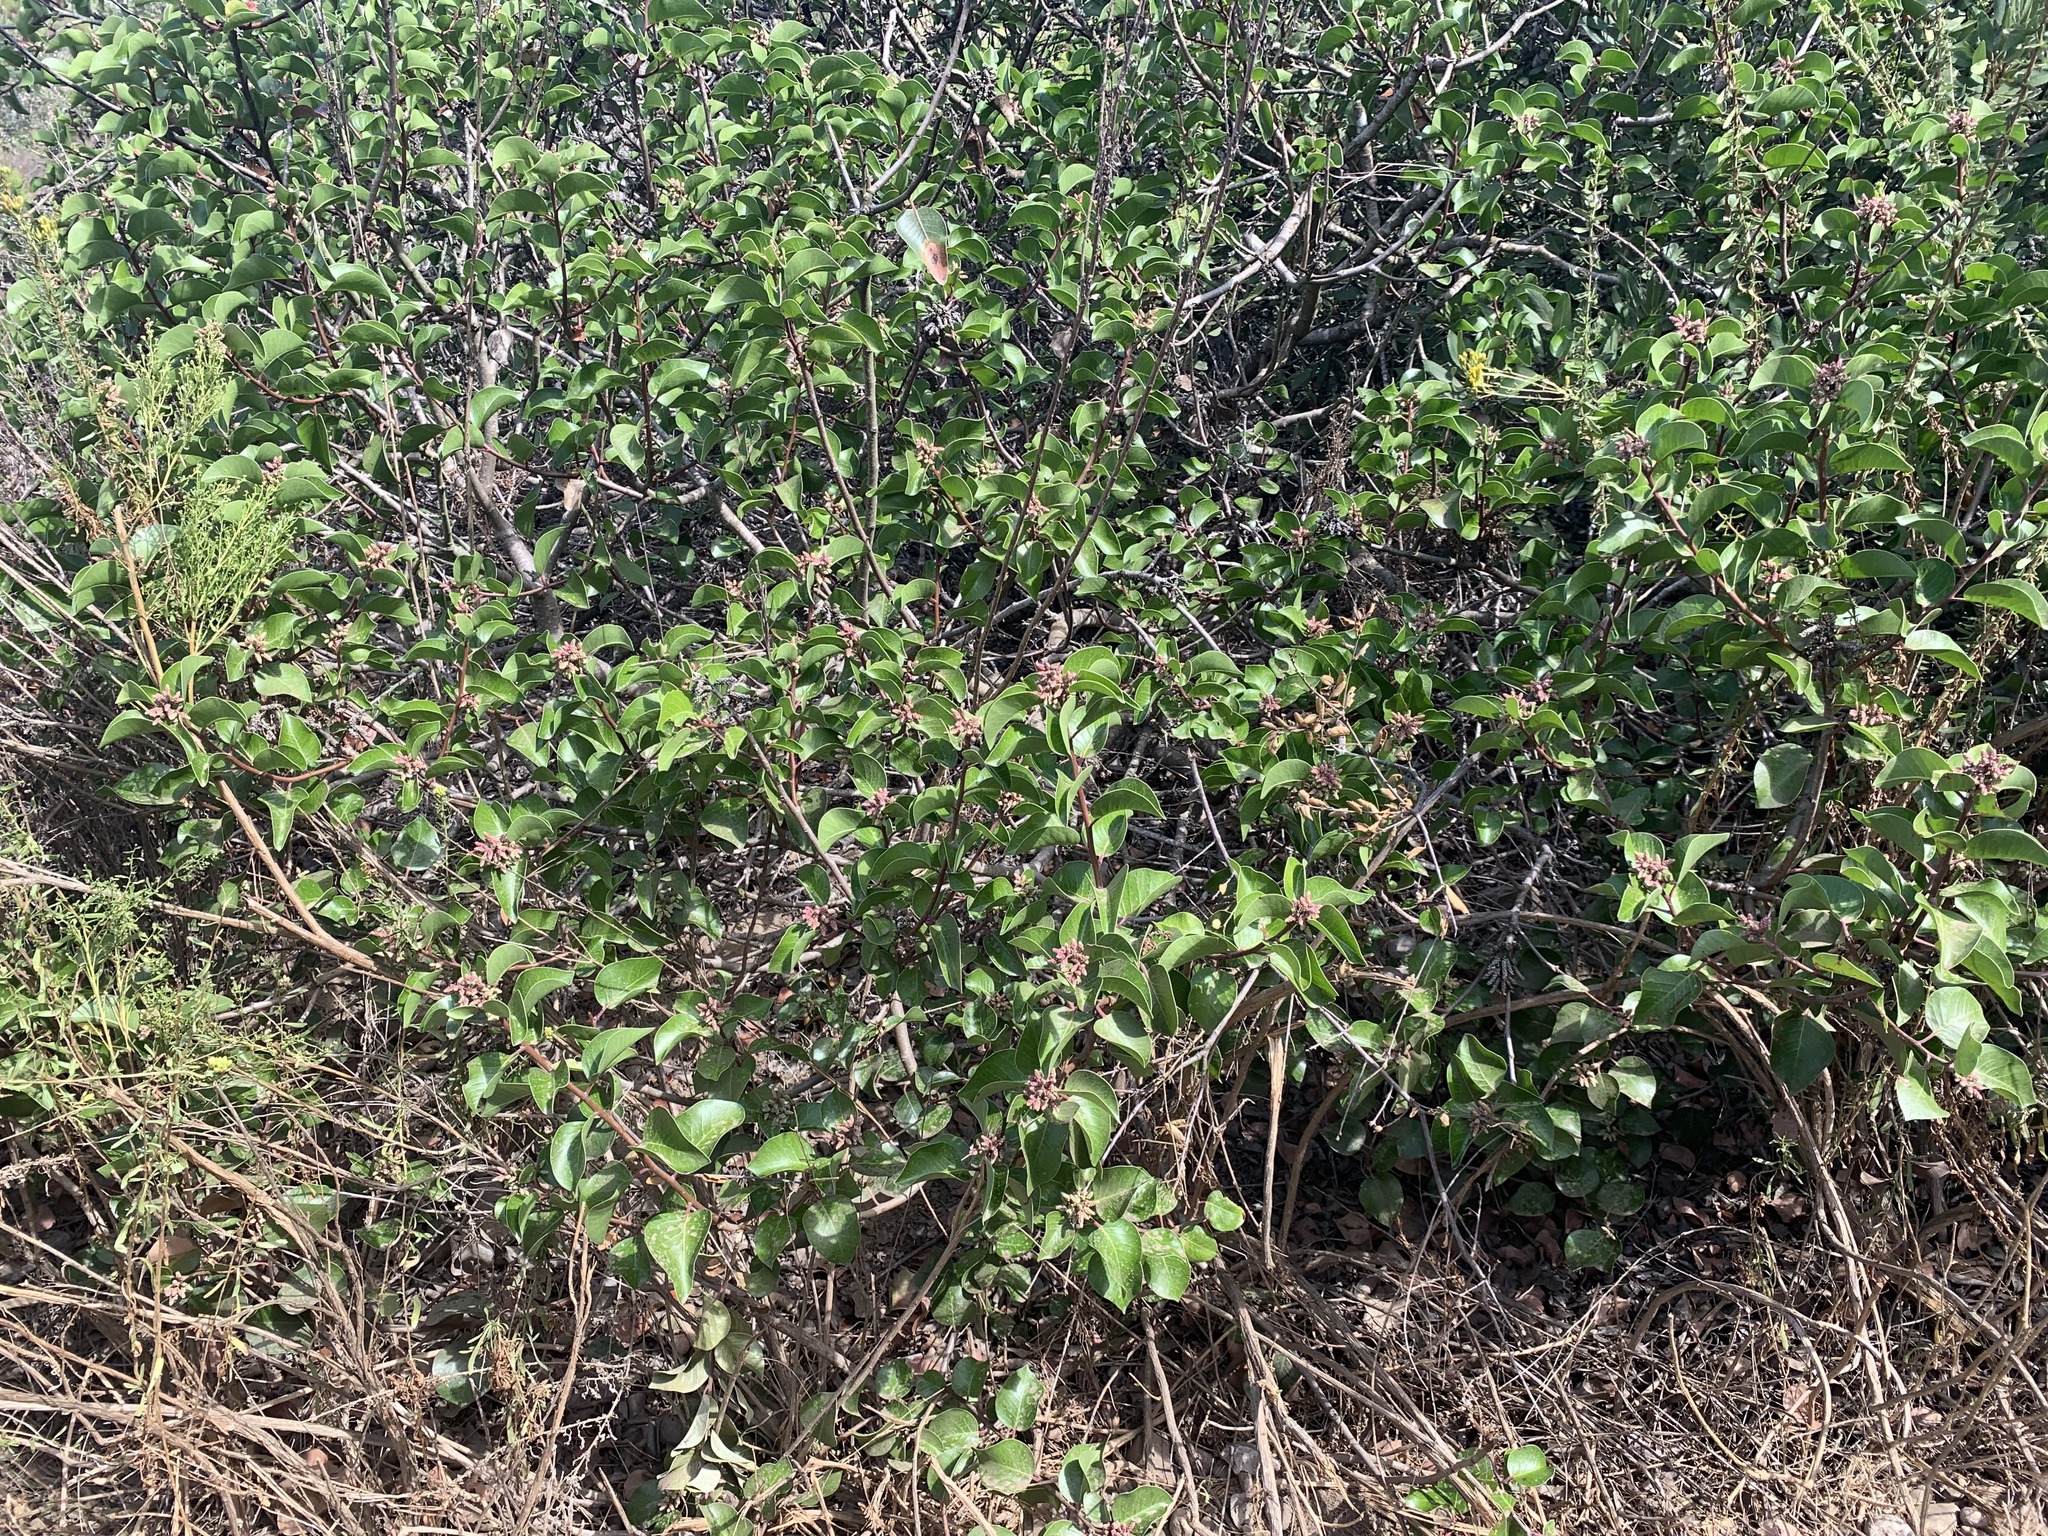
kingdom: Plantae
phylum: Tracheophyta
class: Magnoliopsida
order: Sapindales
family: Anacardiaceae
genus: Rhus
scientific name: Rhus ovata
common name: Sugar sumac
